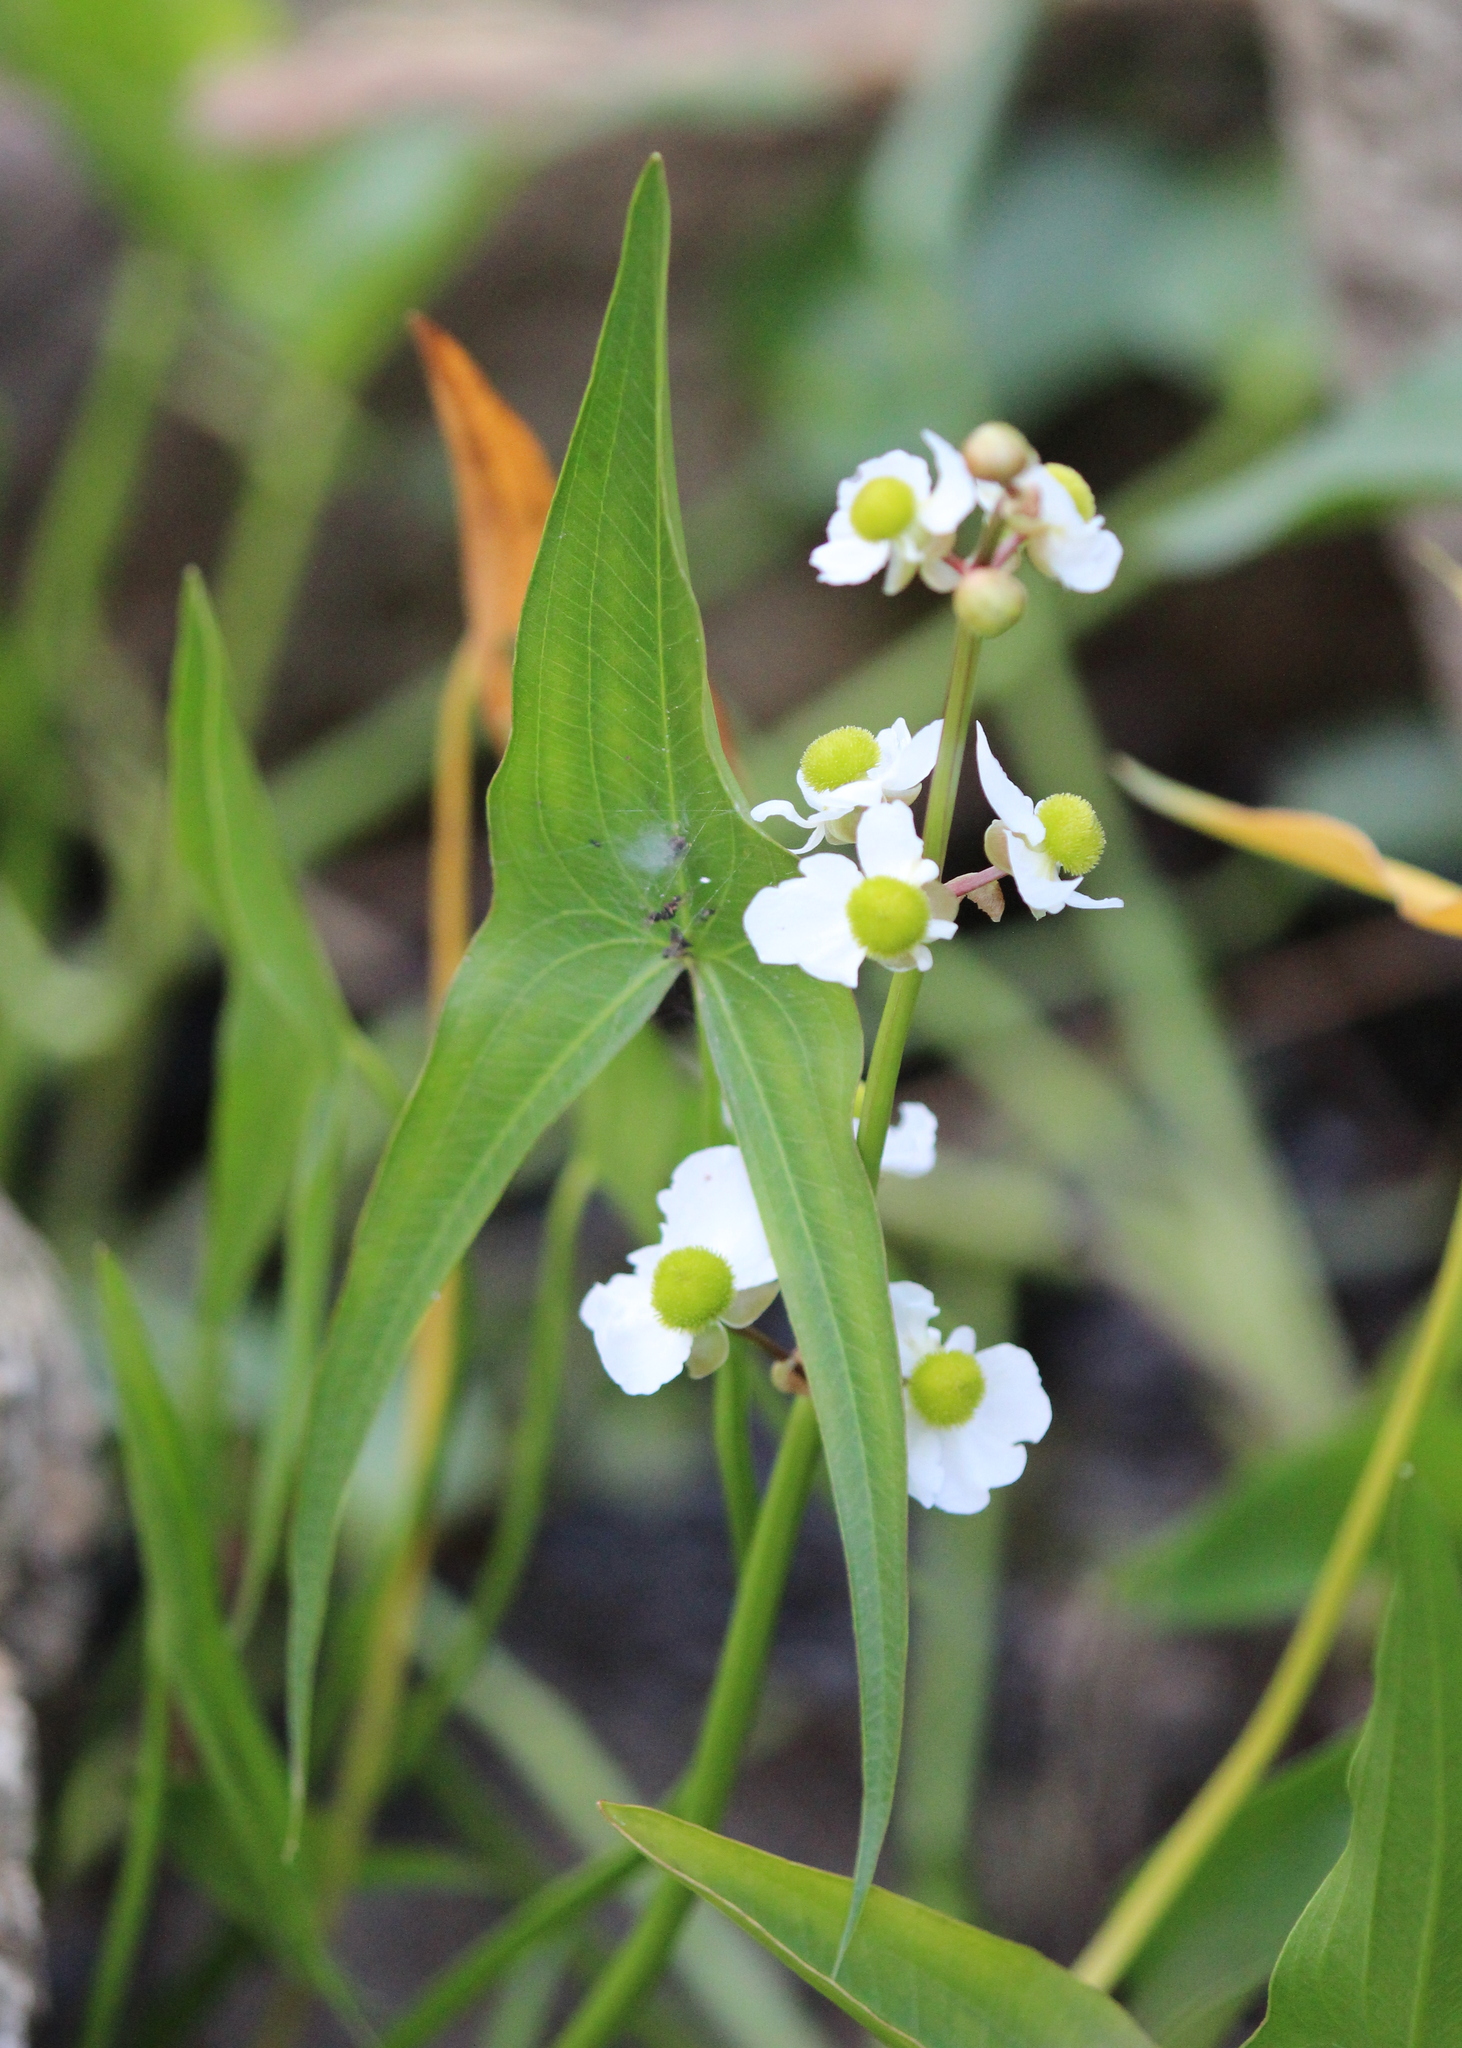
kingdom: Plantae
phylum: Tracheophyta
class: Liliopsida
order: Alismatales
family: Alismataceae
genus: Sagittaria
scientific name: Sagittaria latifolia
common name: Duck-potato
